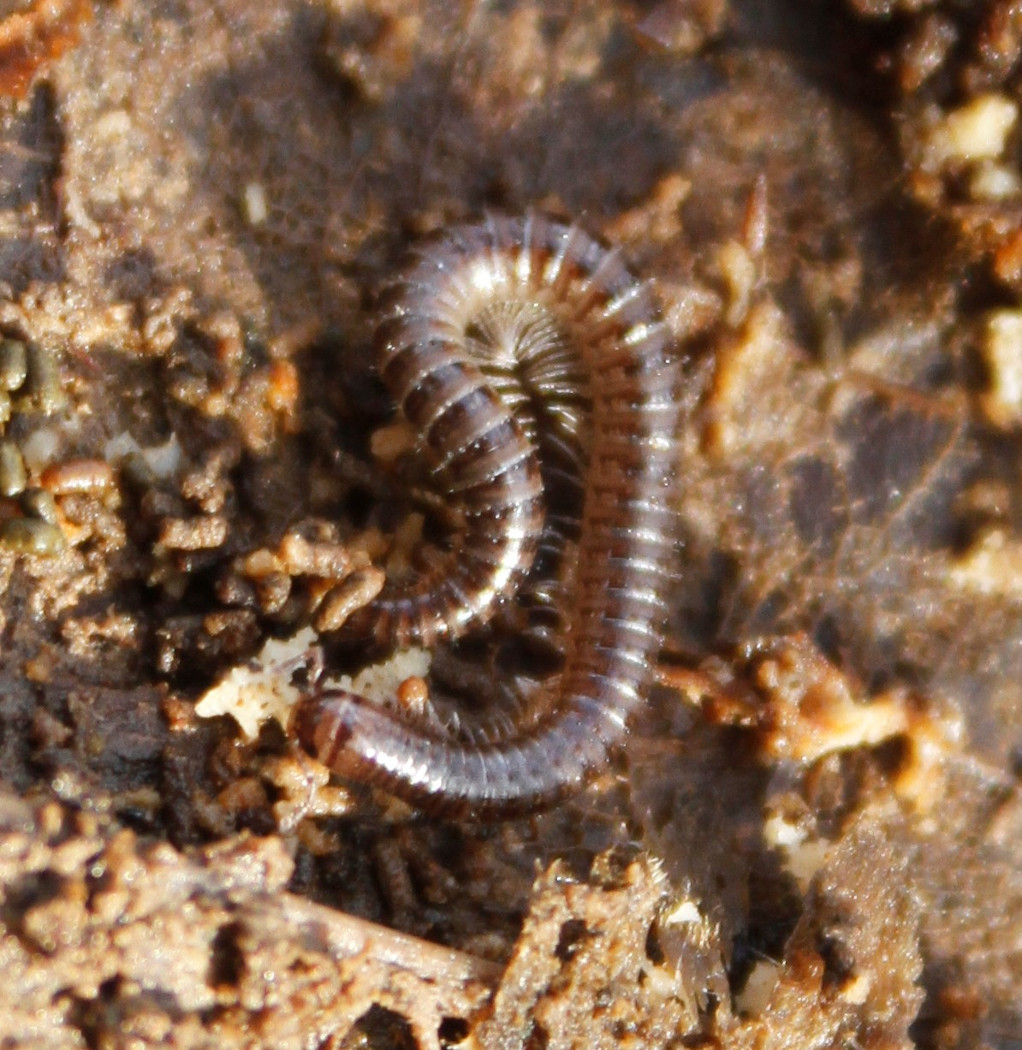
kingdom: Animalia
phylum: Arthropoda
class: Diplopoda
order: Julida
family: Julidae
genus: Ophyiulus
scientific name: Ophyiulus pilosus
